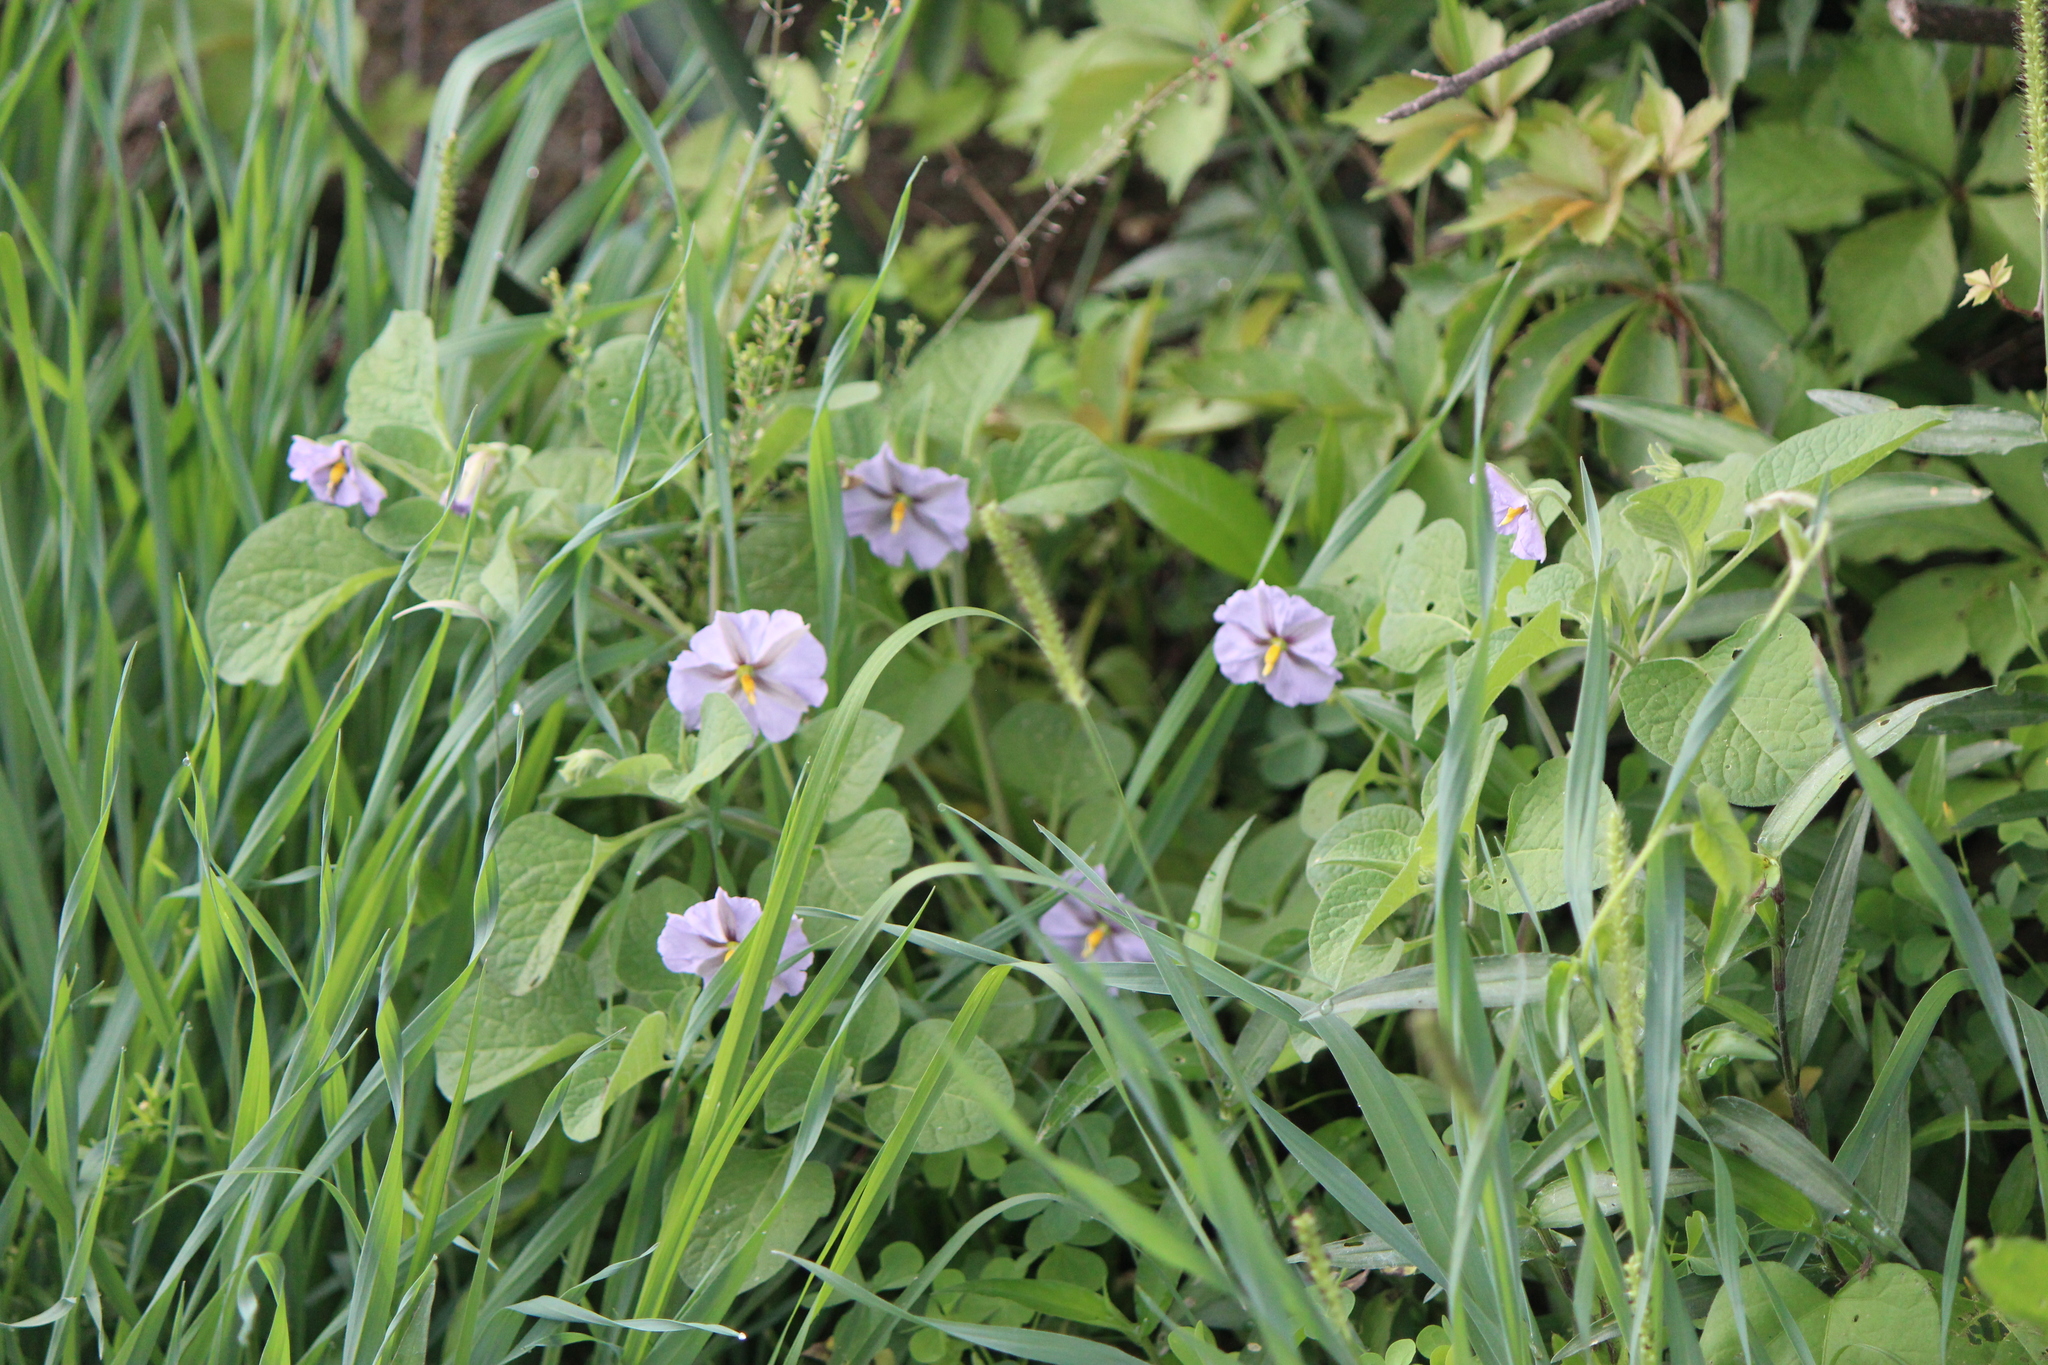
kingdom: Plantae
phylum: Tracheophyta
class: Magnoliopsida
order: Solanales
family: Solanaceae
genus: Lycianthes
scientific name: Lycianthes dejecta
